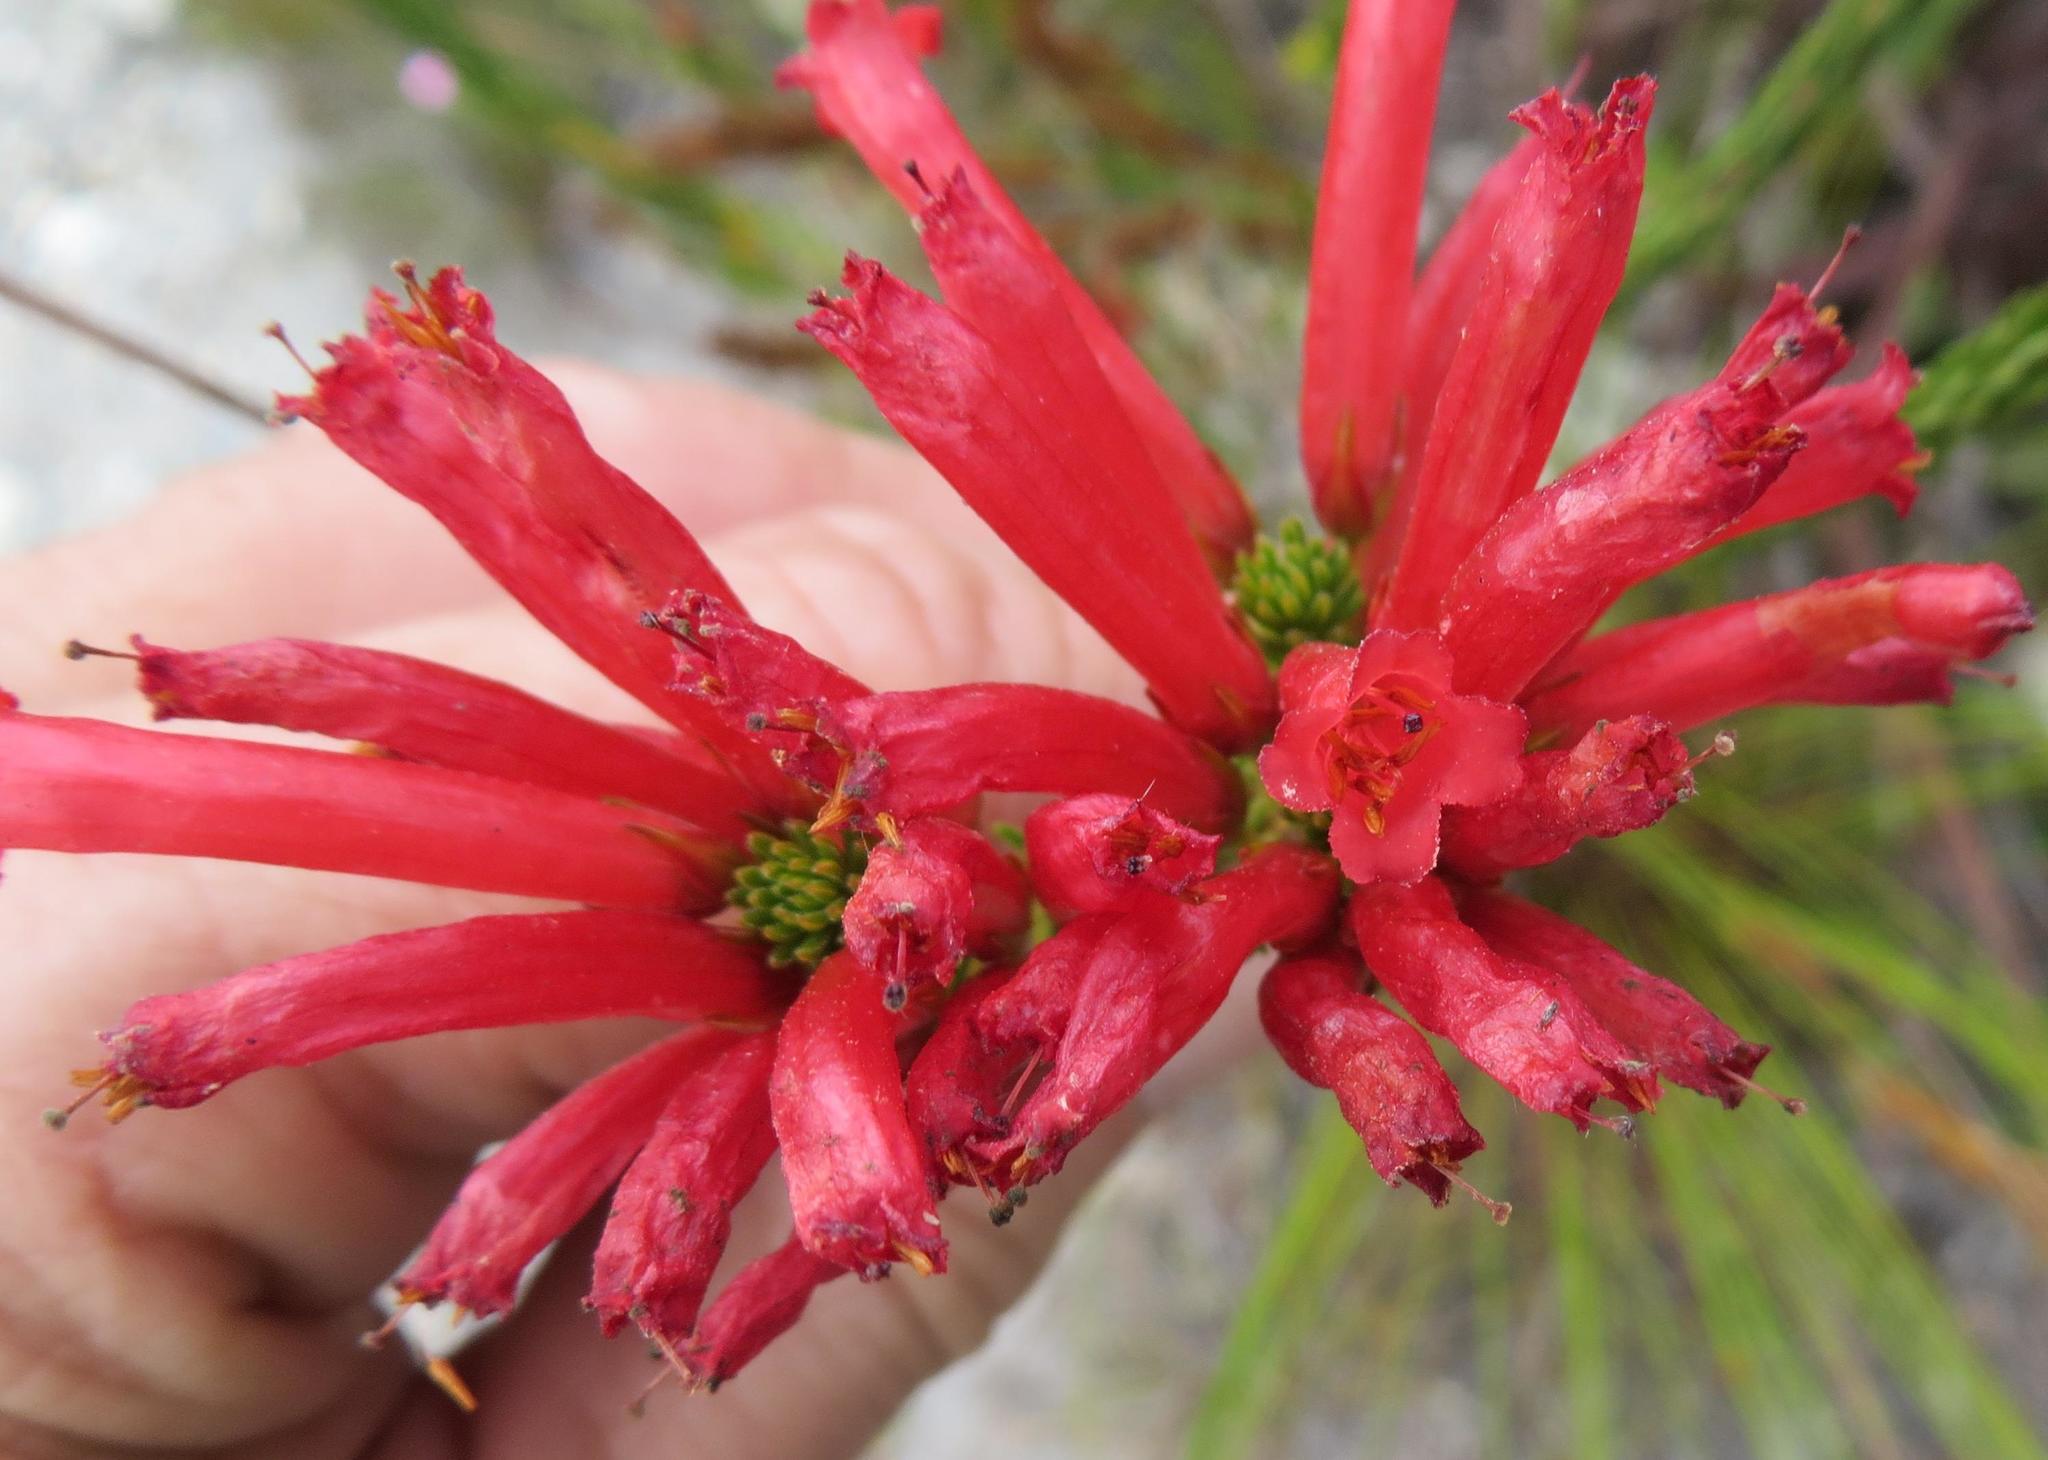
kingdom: Plantae
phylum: Tracheophyta
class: Magnoliopsida
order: Ericales
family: Ericaceae
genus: Erica
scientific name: Erica regia
